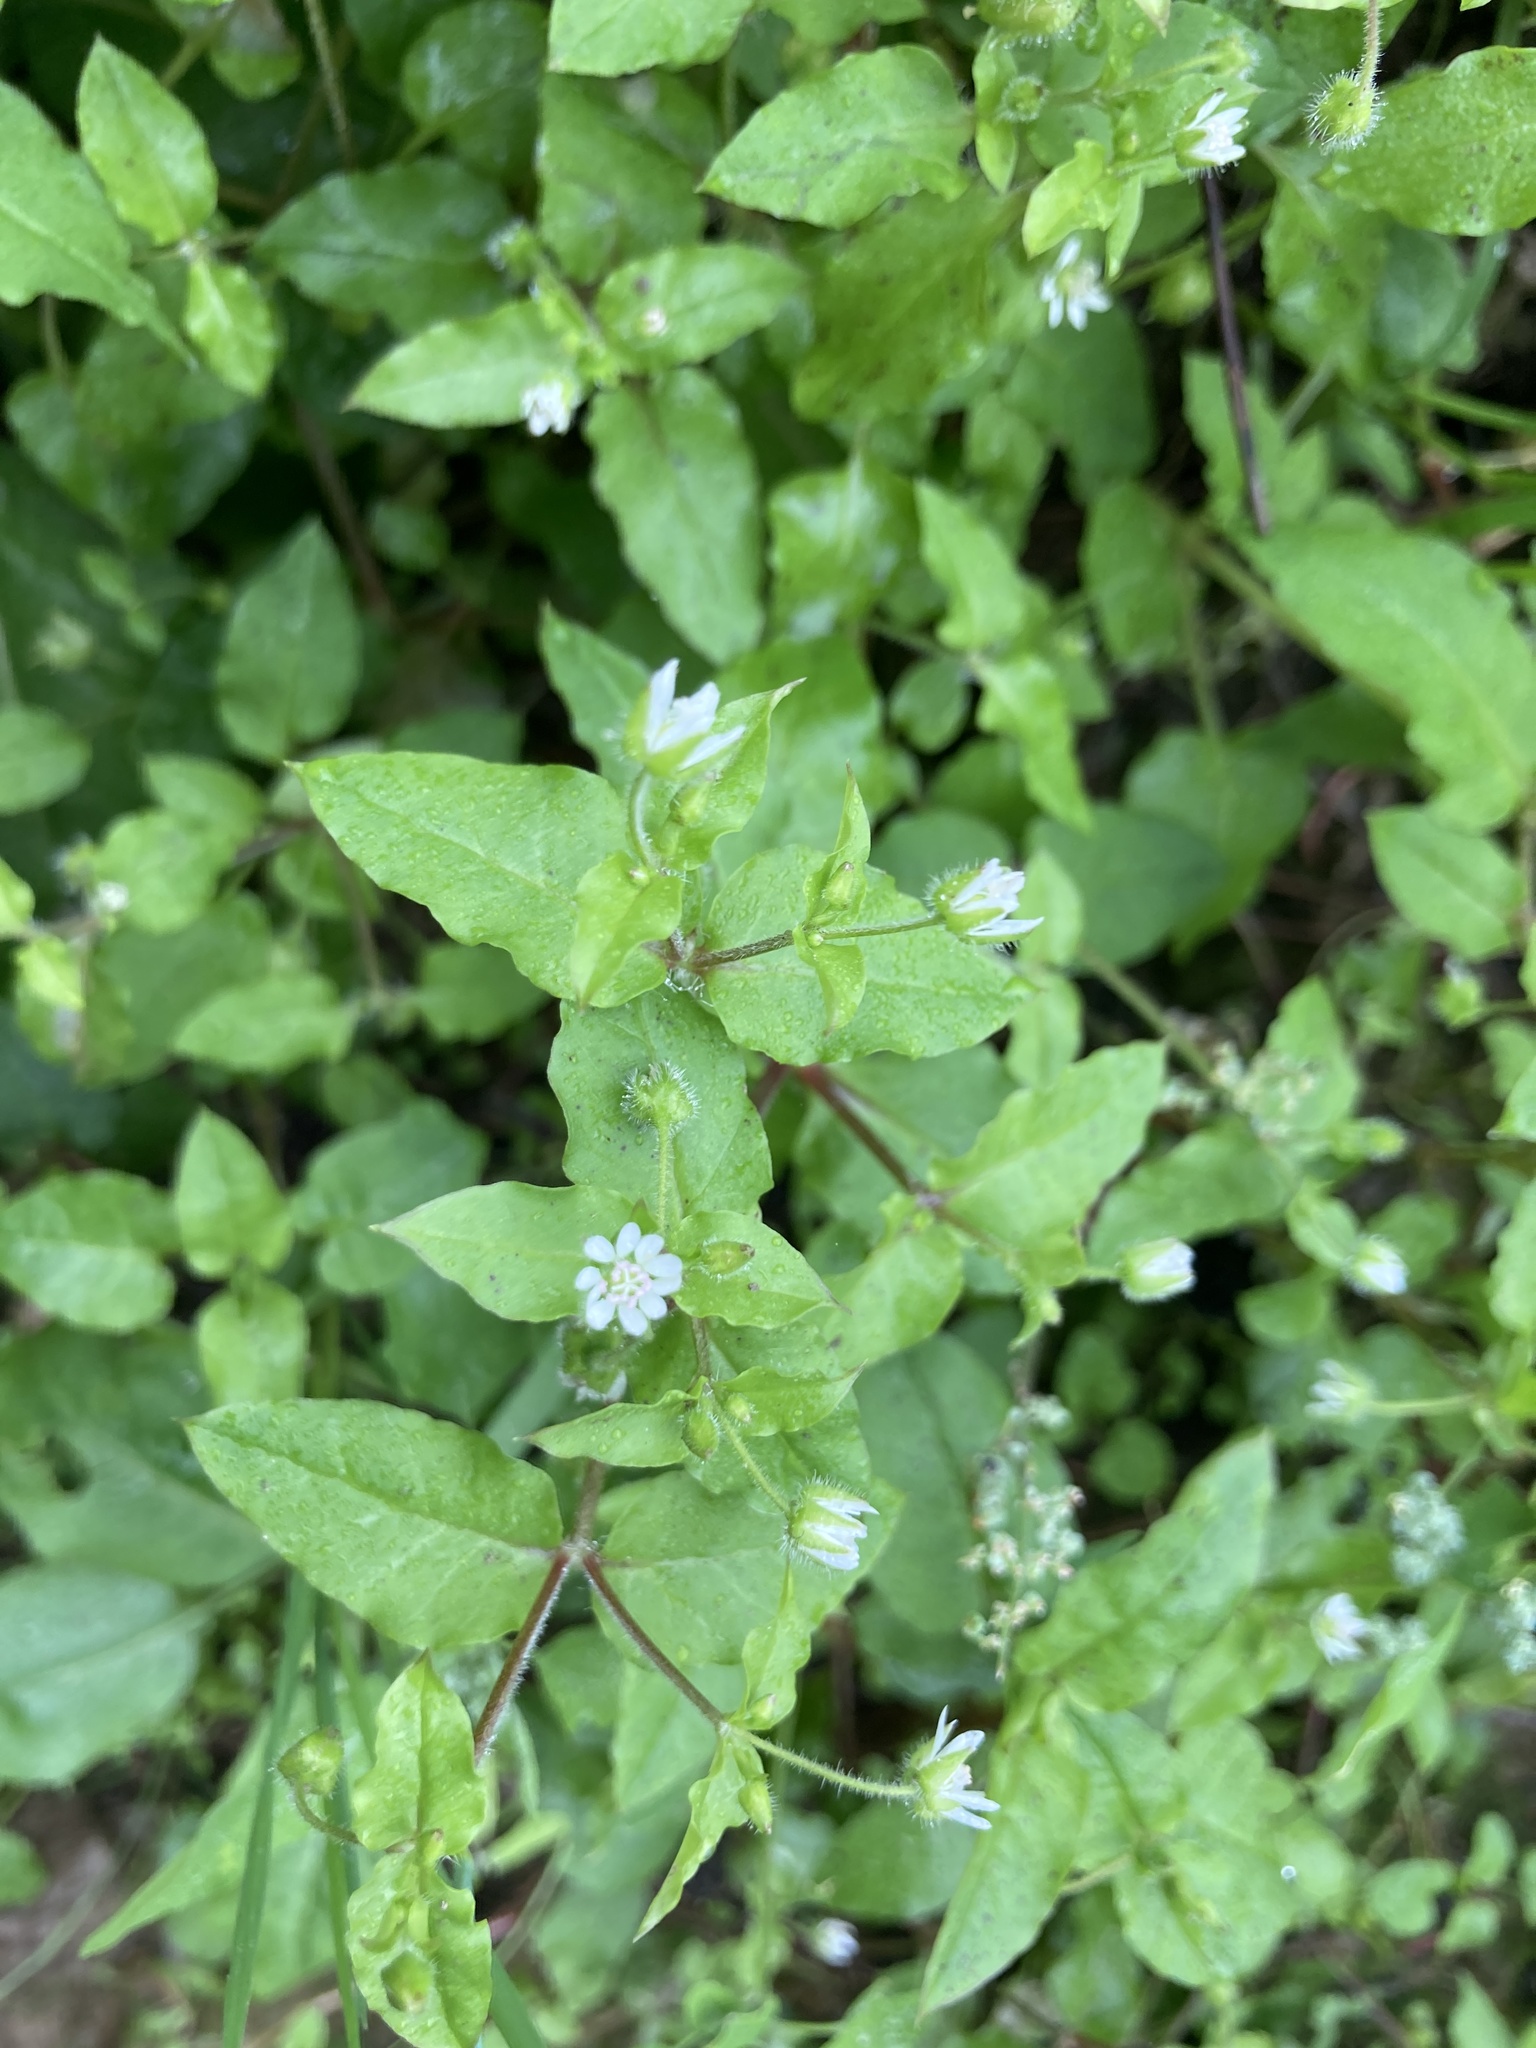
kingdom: Plantae
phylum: Tracheophyta
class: Magnoliopsida
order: Caryophyllales
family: Caryophyllaceae
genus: Stellaria
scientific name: Stellaria aquatica
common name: Water chickweed
